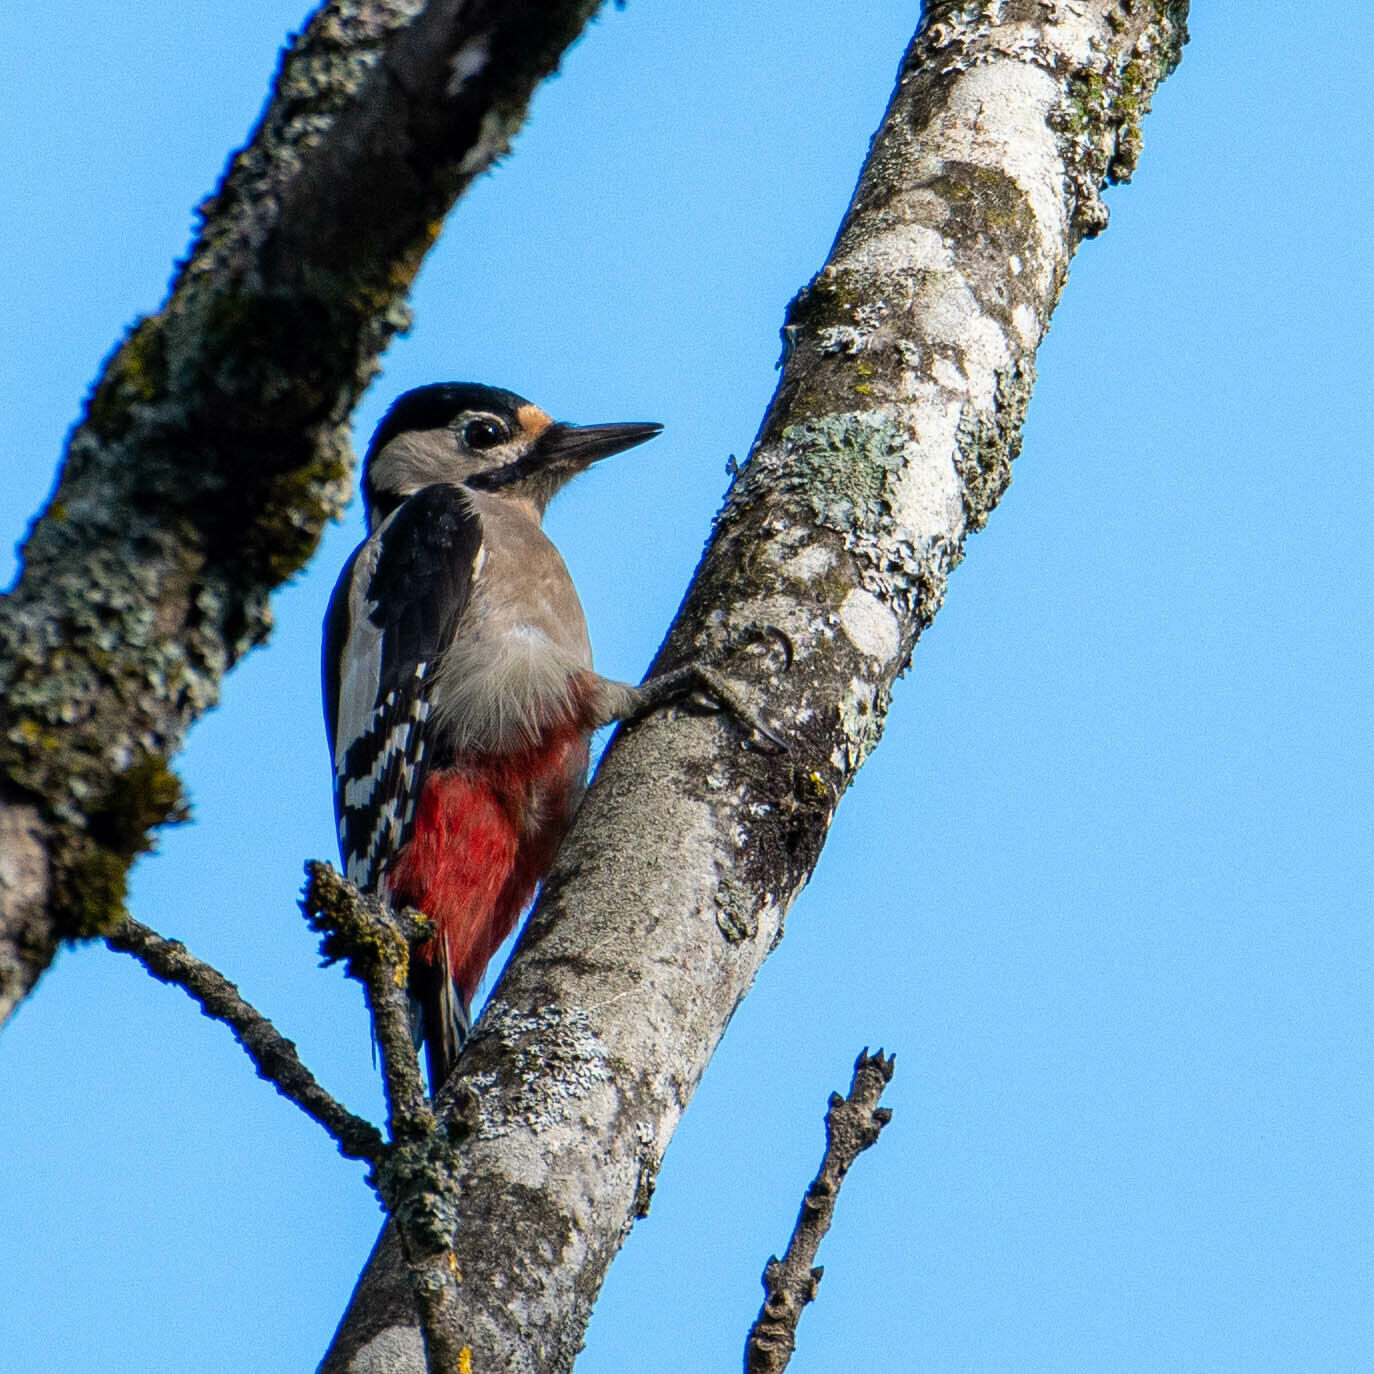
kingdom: Animalia
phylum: Chordata
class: Aves
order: Piciformes
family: Picidae
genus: Dendrocopos
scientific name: Dendrocopos major
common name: Great spotted woodpecker
